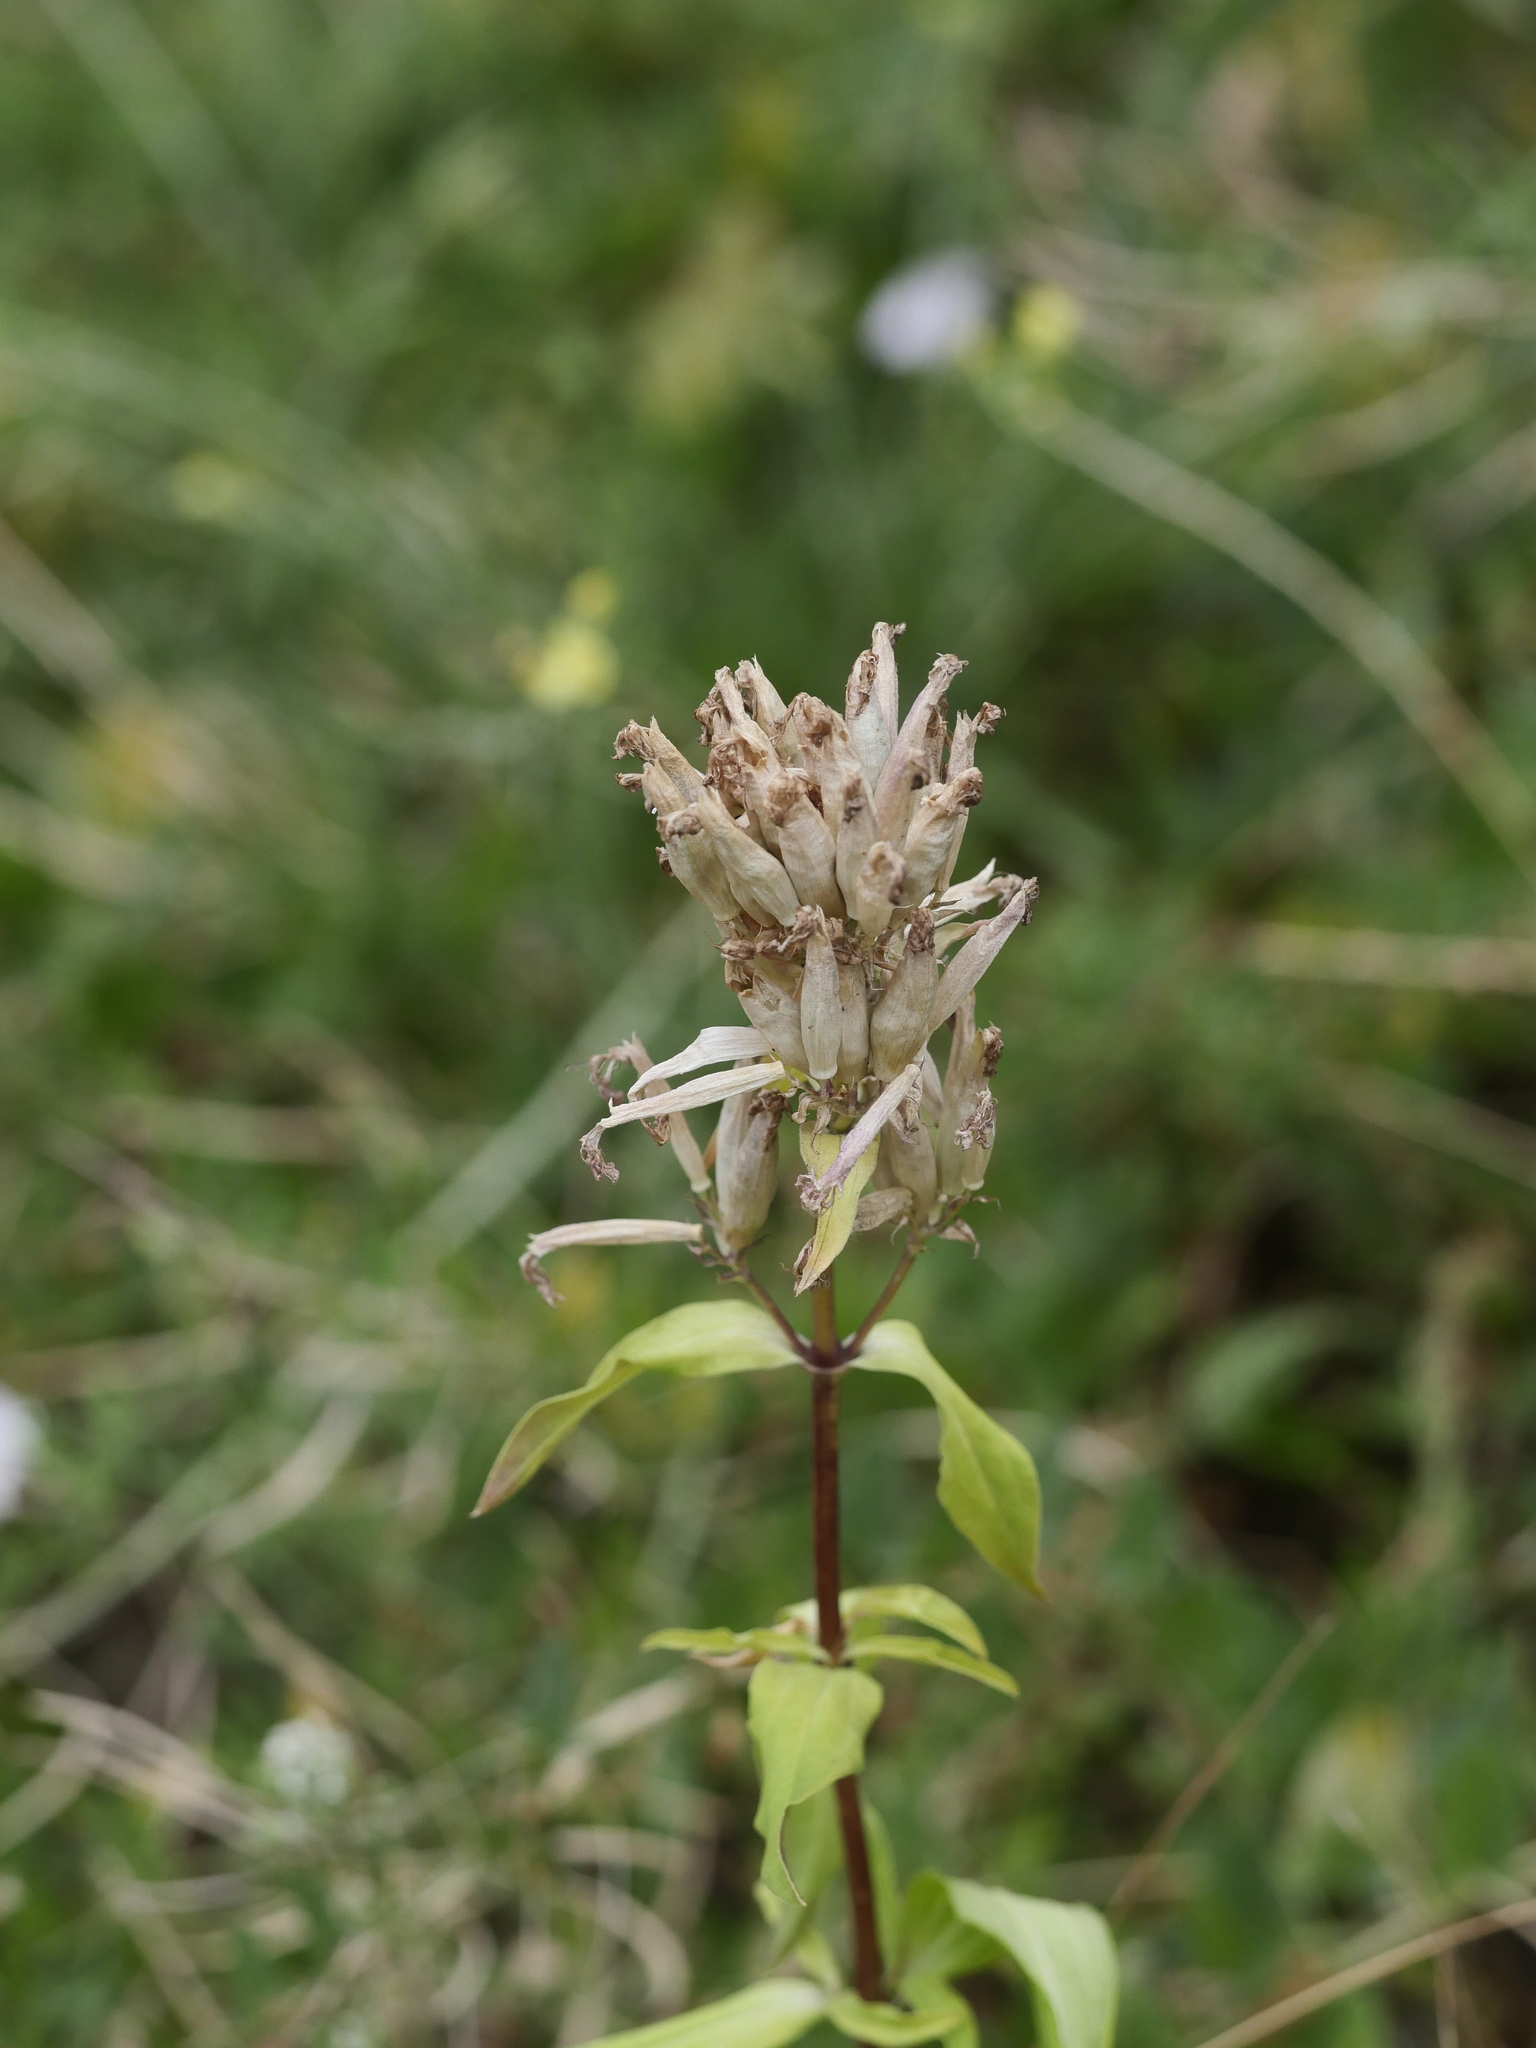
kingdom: Plantae
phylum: Tracheophyta
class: Magnoliopsida
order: Caryophyllales
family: Caryophyllaceae
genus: Saponaria
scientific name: Saponaria officinalis
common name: Soapwort
